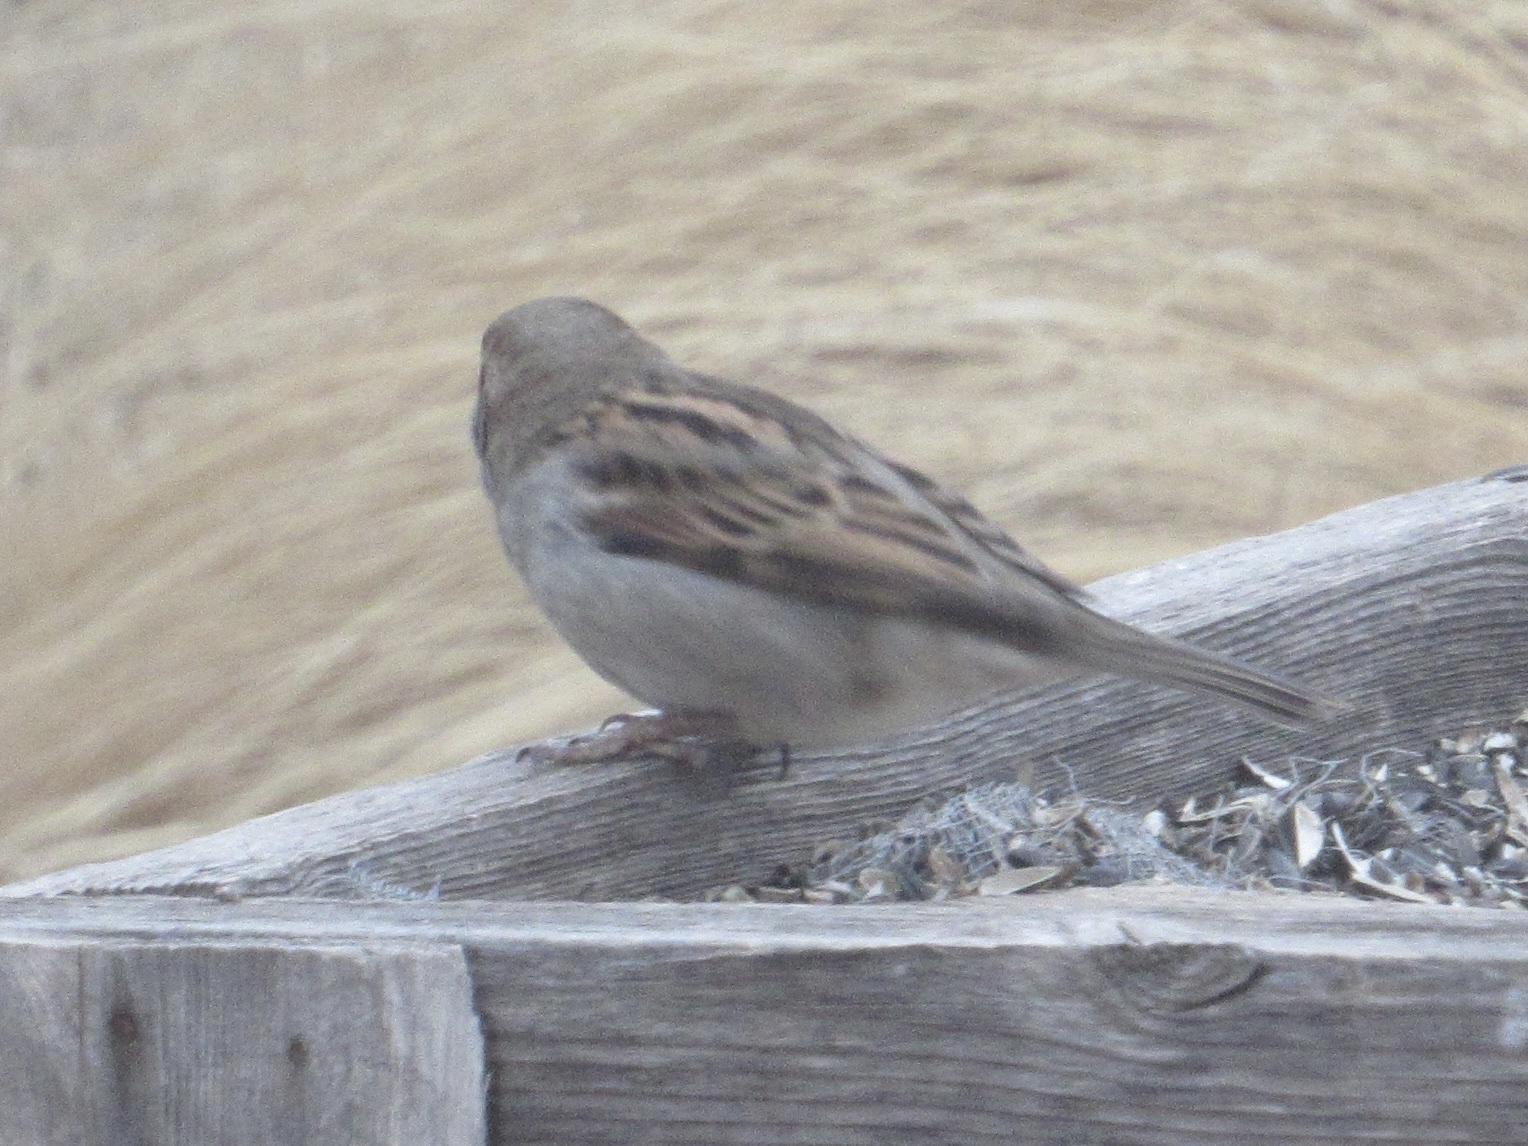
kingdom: Animalia
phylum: Chordata
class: Aves
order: Passeriformes
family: Passeridae
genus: Passer
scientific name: Passer domesticus
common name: House sparrow
